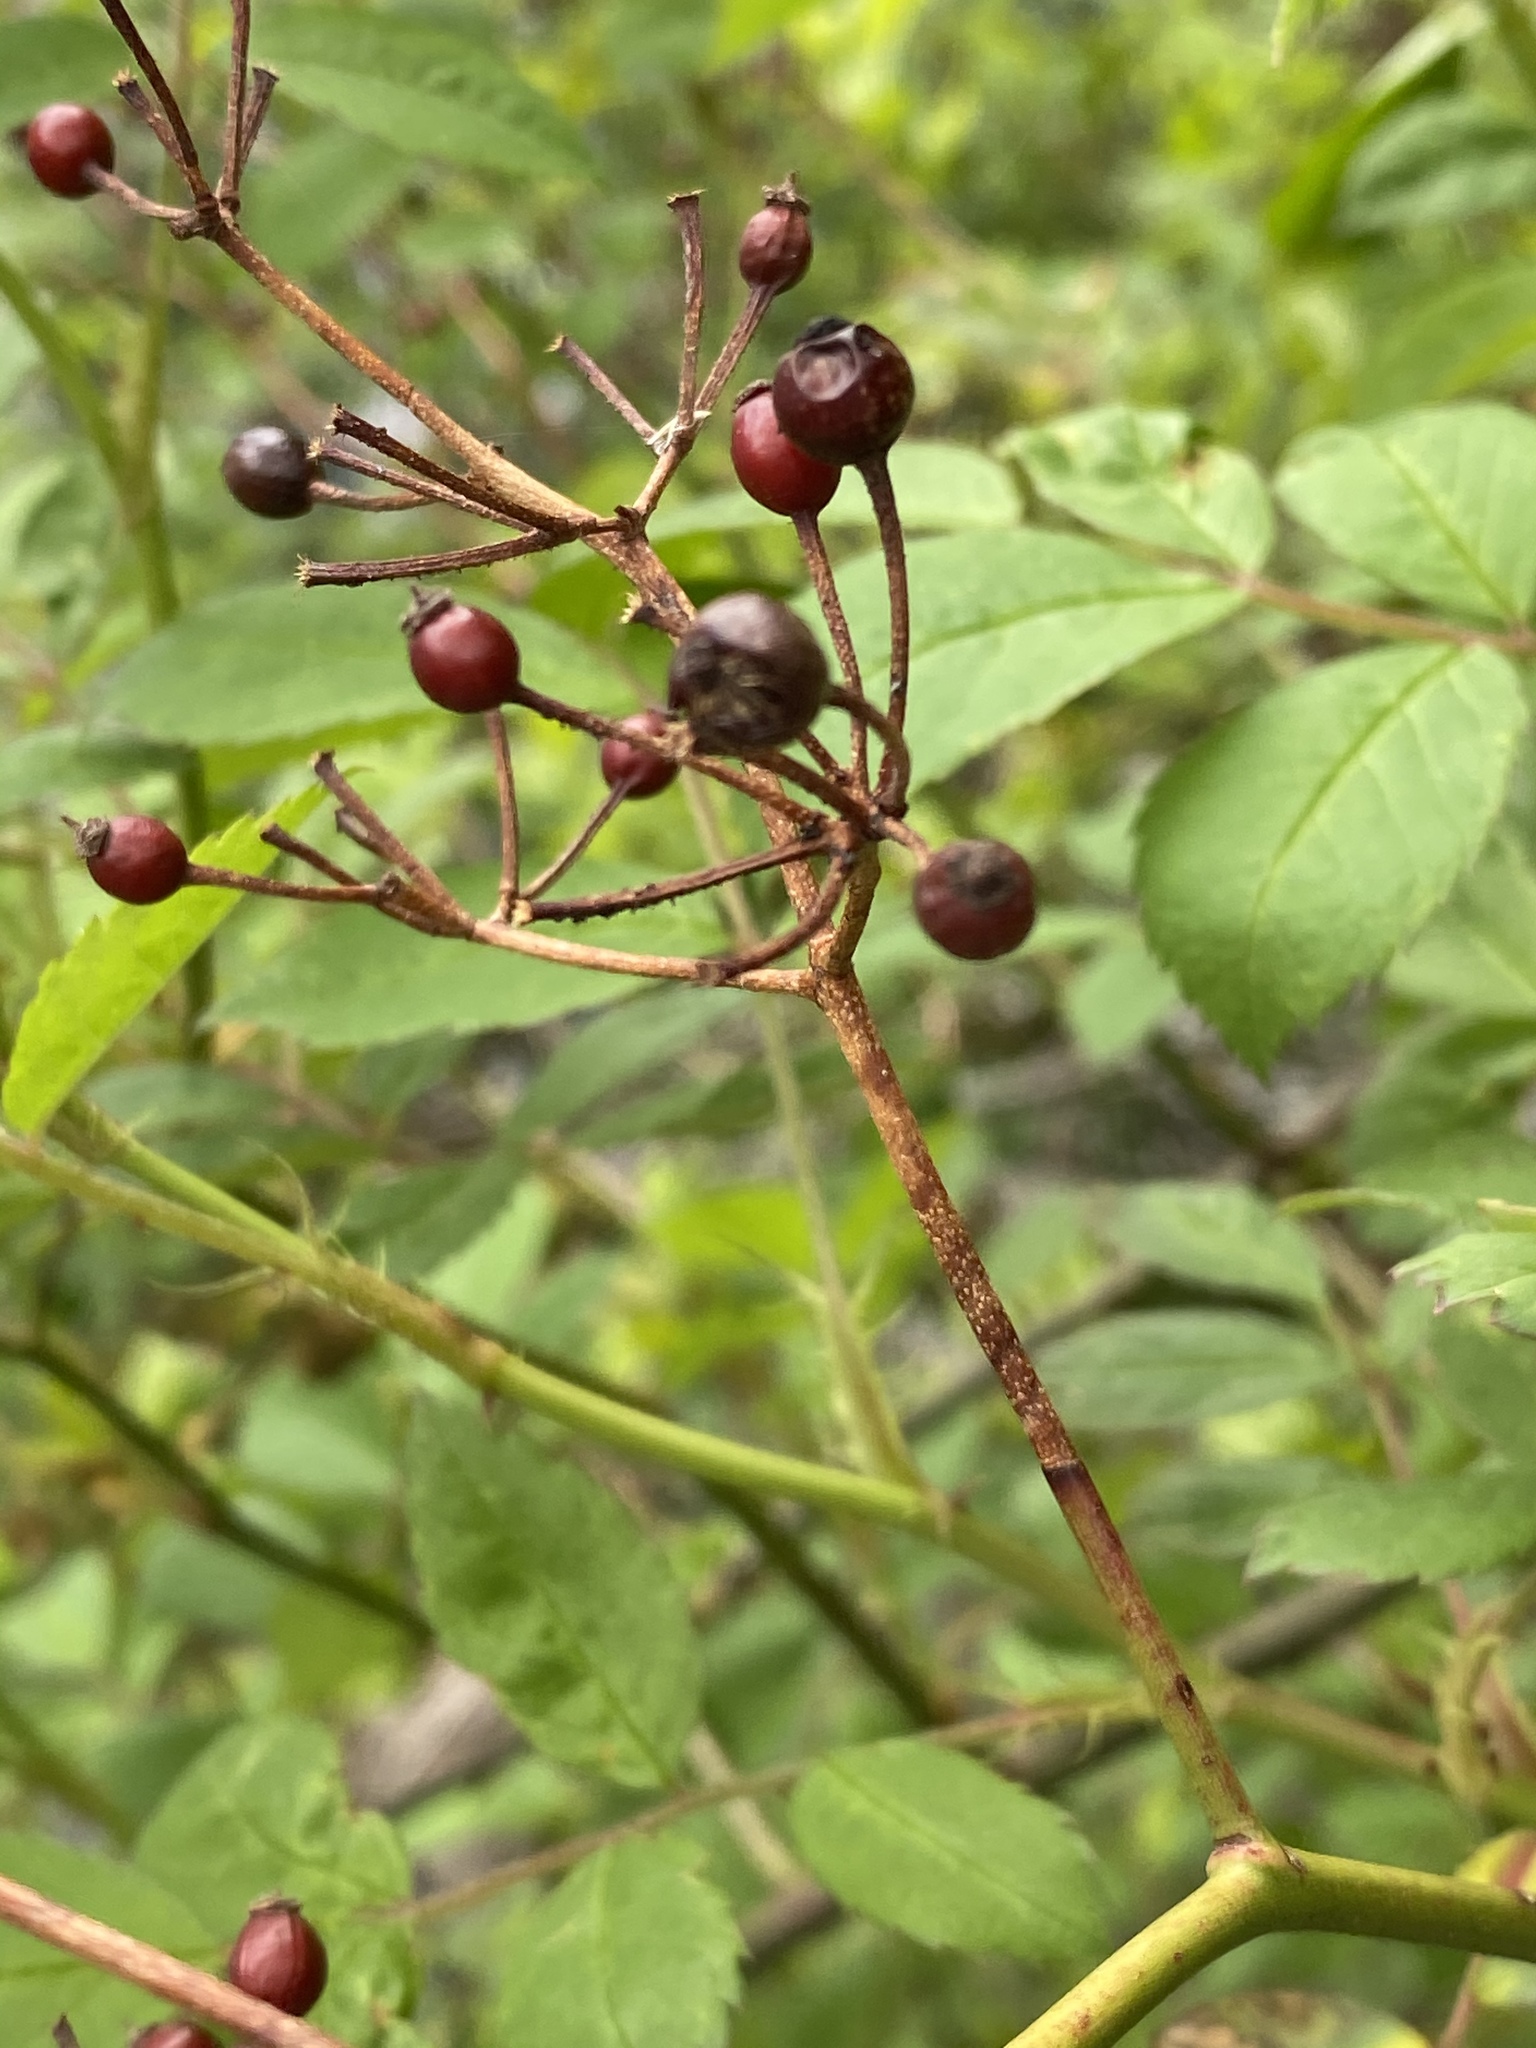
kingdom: Plantae
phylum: Tracheophyta
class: Magnoliopsida
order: Rosales
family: Rosaceae
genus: Rosa
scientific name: Rosa multiflora
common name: Multiflora rose
